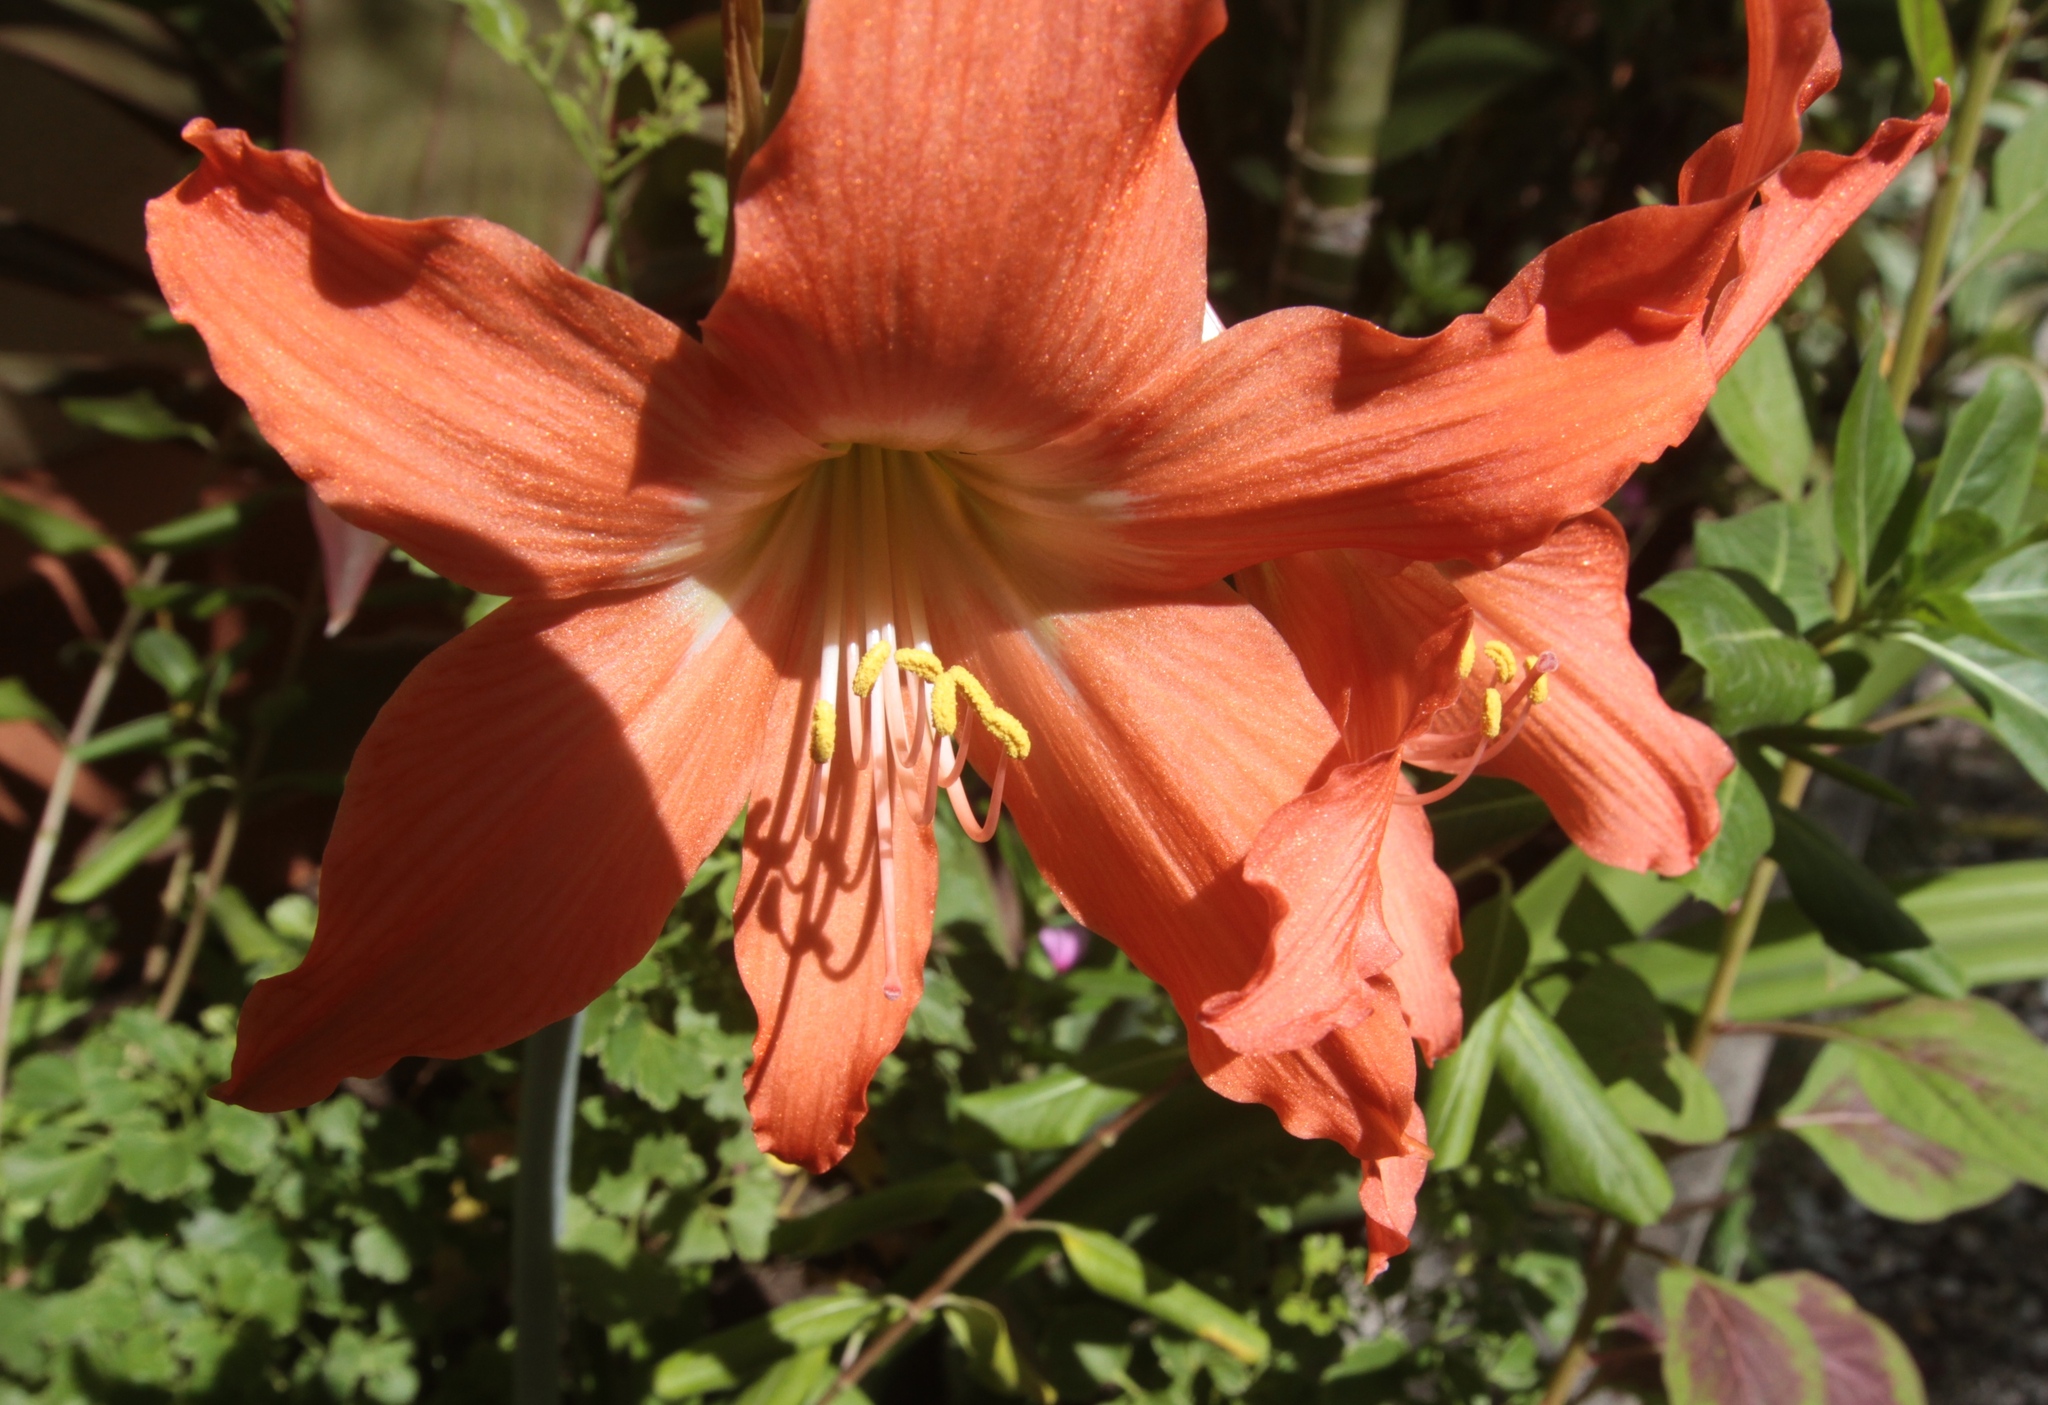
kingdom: Plantae
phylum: Tracheophyta
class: Liliopsida
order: Asparagales
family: Amaryllidaceae
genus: Hippeastrum
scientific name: Hippeastrum puniceum
